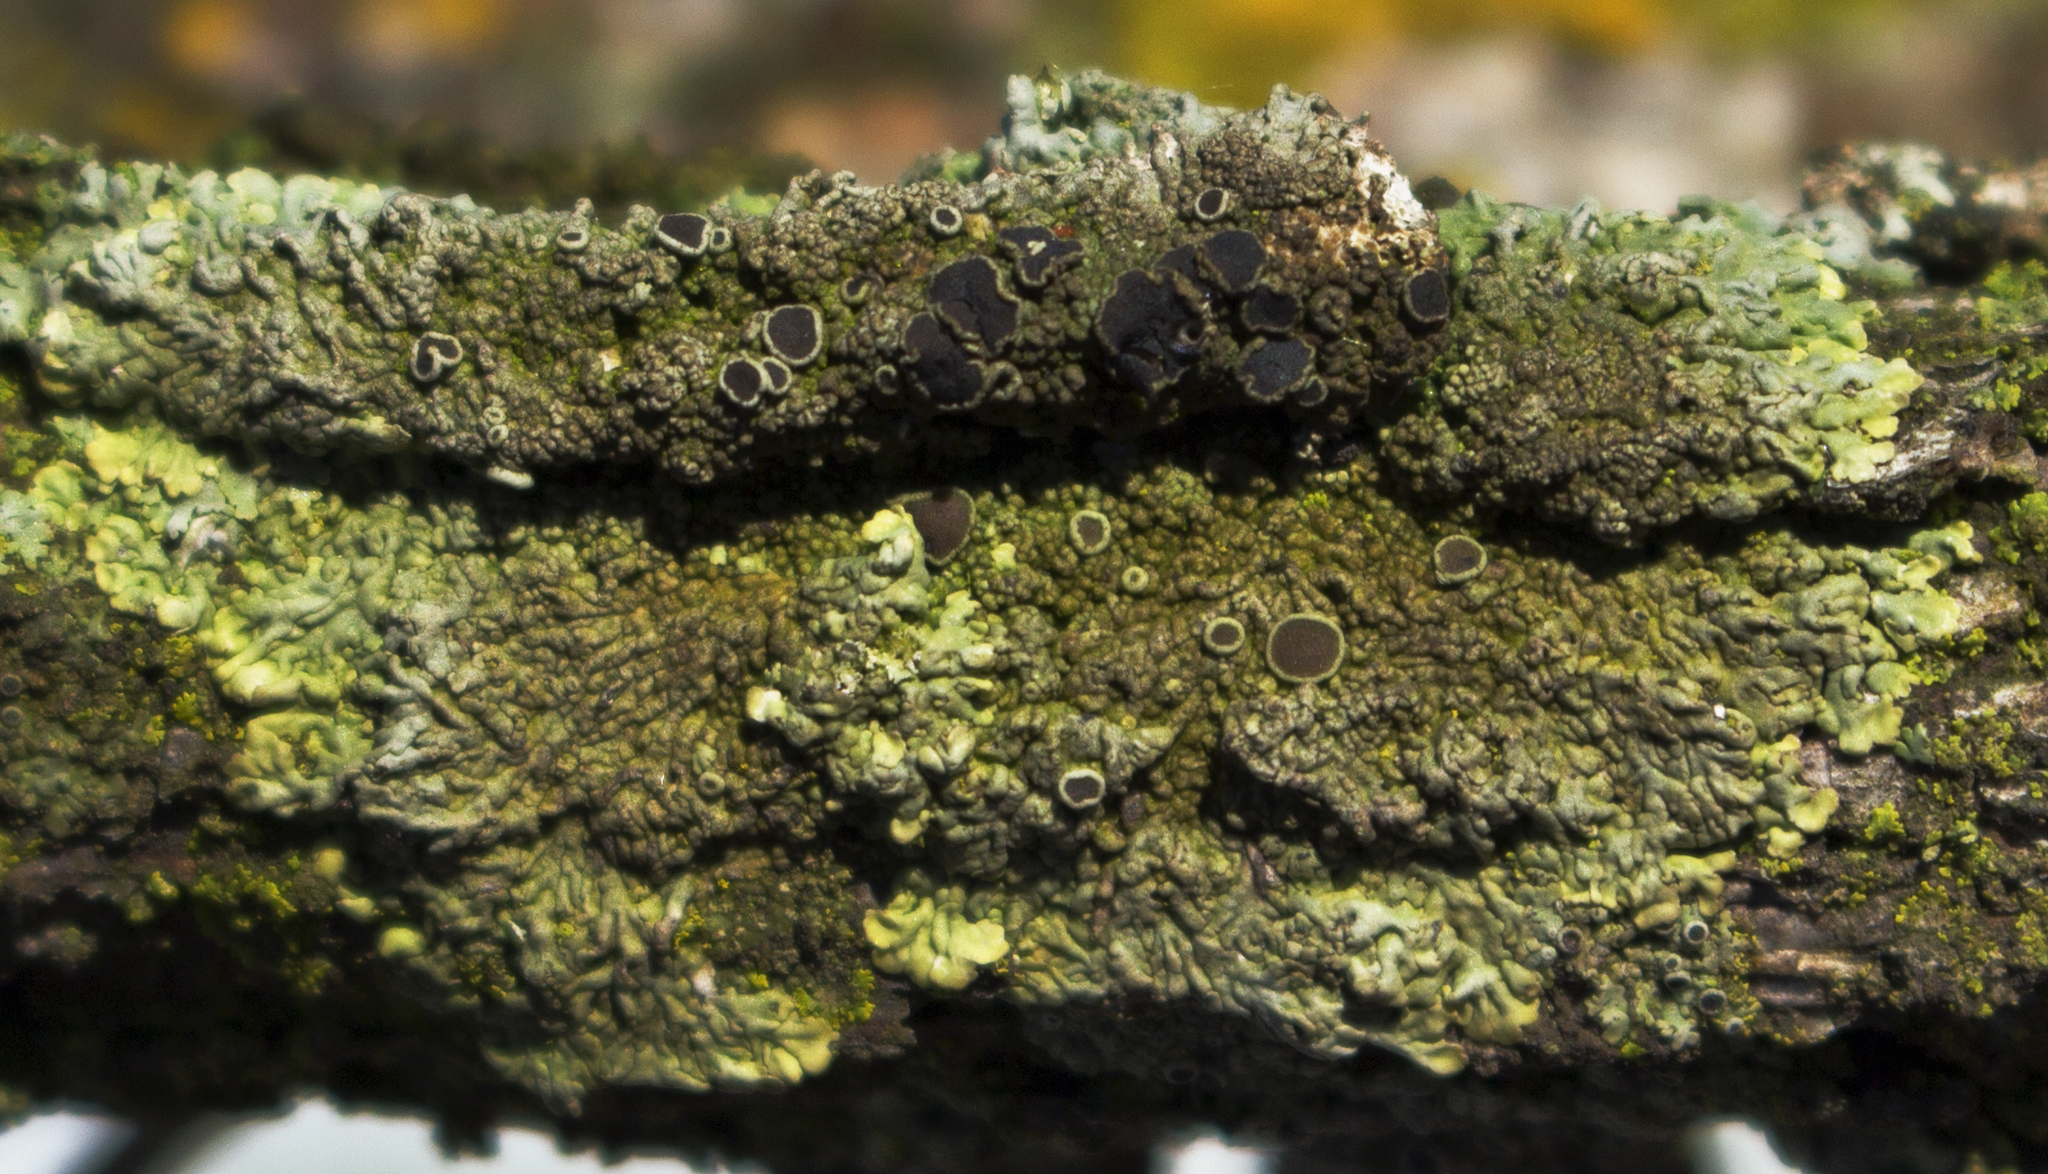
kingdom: Fungi
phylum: Ascomycota
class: Lecanoromycetes
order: Caliciales
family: Physciaceae
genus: Hyperphyscia
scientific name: Hyperphyscia syncolla
